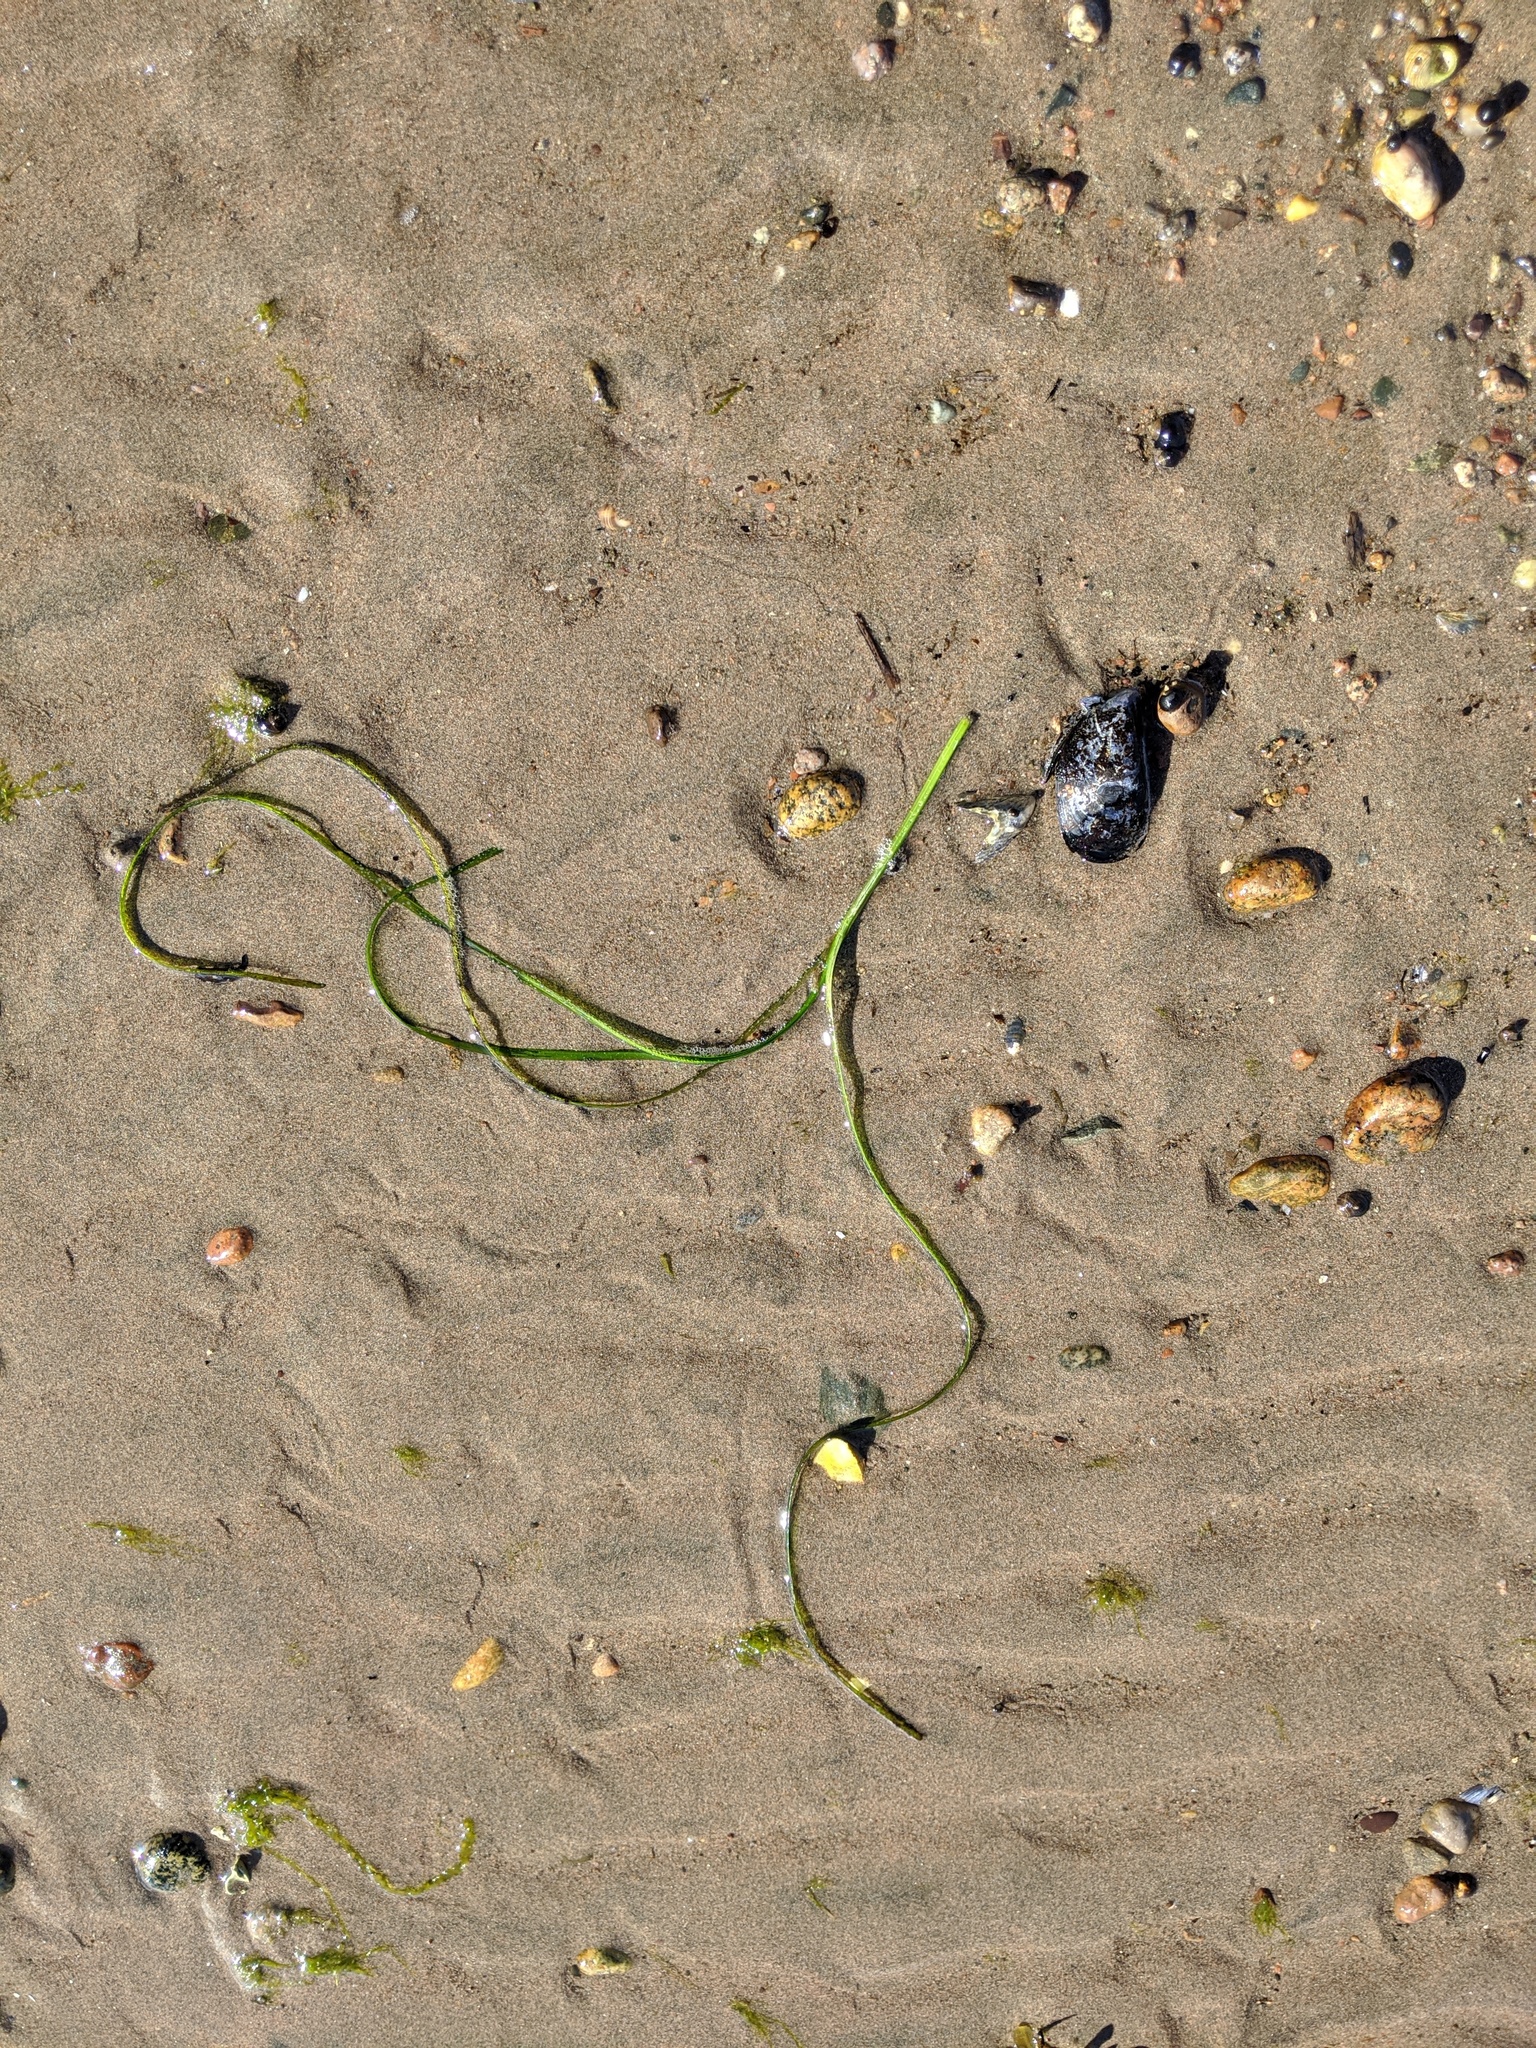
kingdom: Plantae
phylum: Tracheophyta
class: Liliopsida
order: Alismatales
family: Zosteraceae
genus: Zostera
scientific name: Zostera marina
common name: Eelgrass
